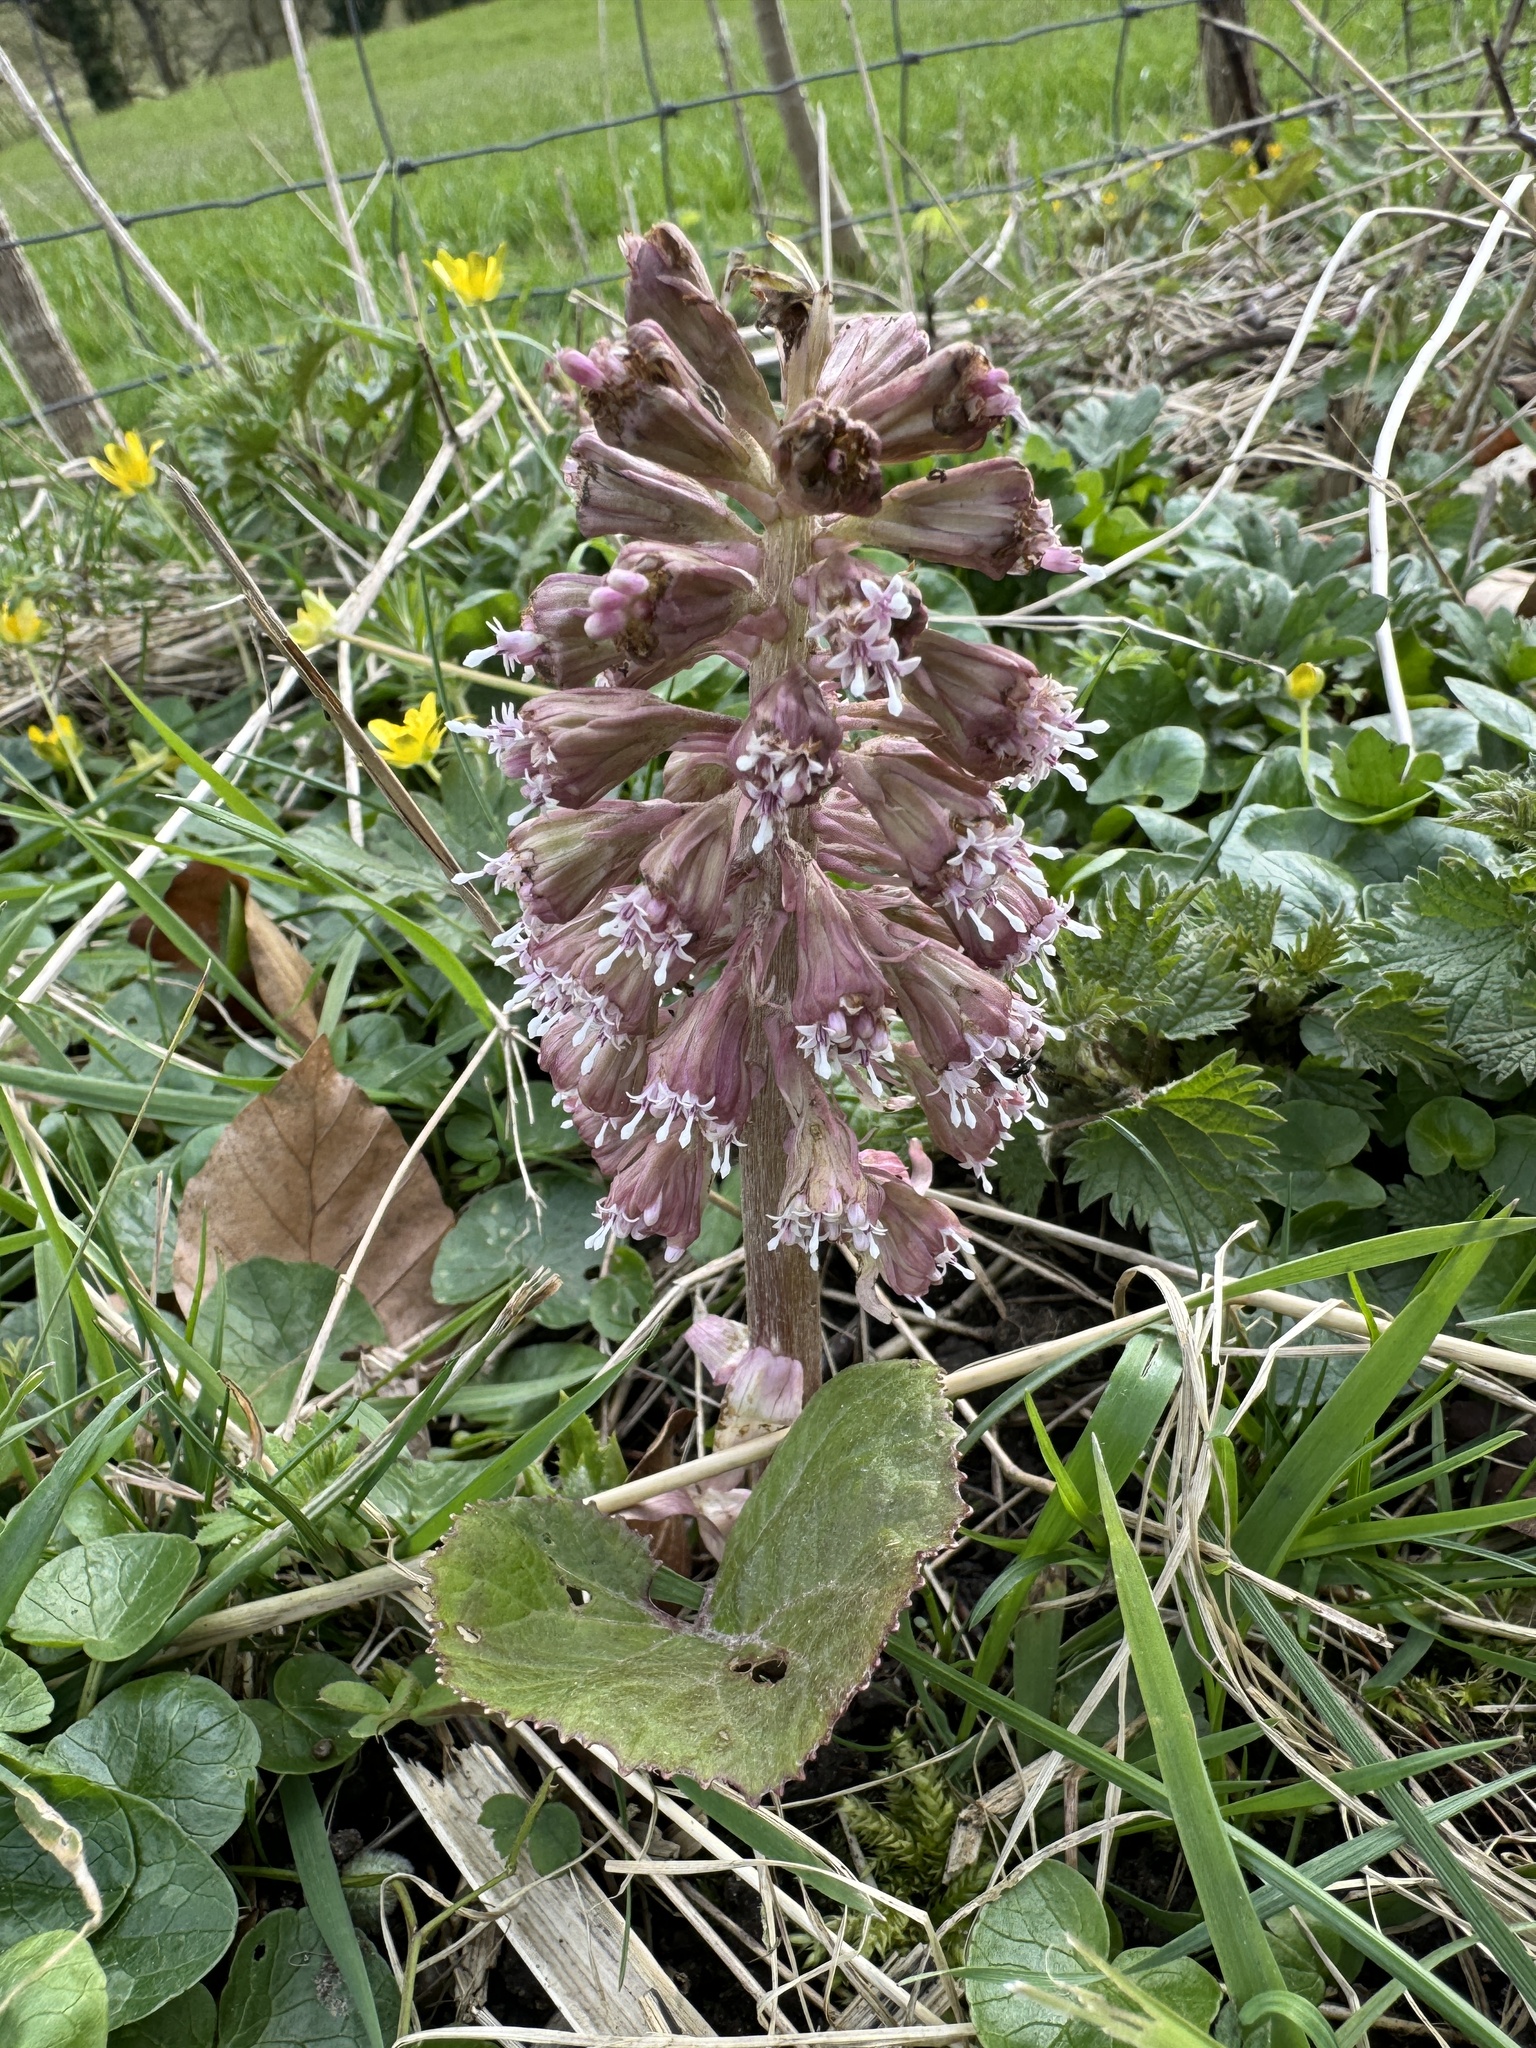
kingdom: Plantae
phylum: Tracheophyta
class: Magnoliopsida
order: Asterales
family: Asteraceae
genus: Petasites
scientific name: Petasites hybridus
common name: Butterbur
